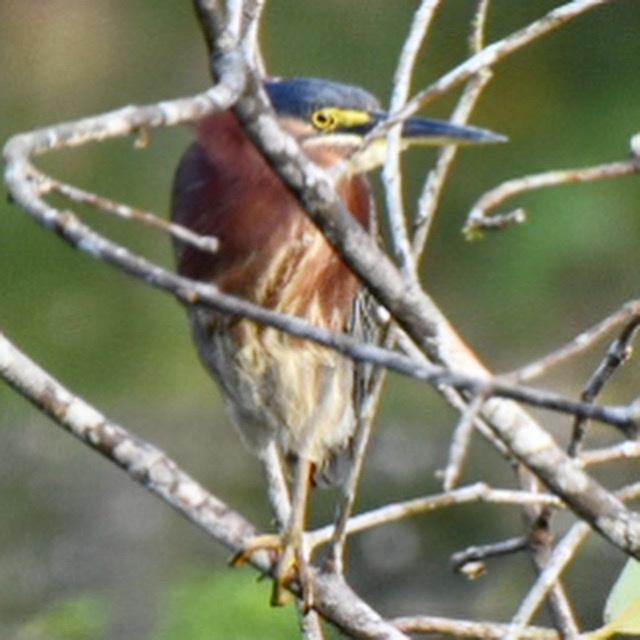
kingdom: Animalia
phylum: Chordata
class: Aves
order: Pelecaniformes
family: Ardeidae
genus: Butorides
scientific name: Butorides virescens
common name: Green heron
